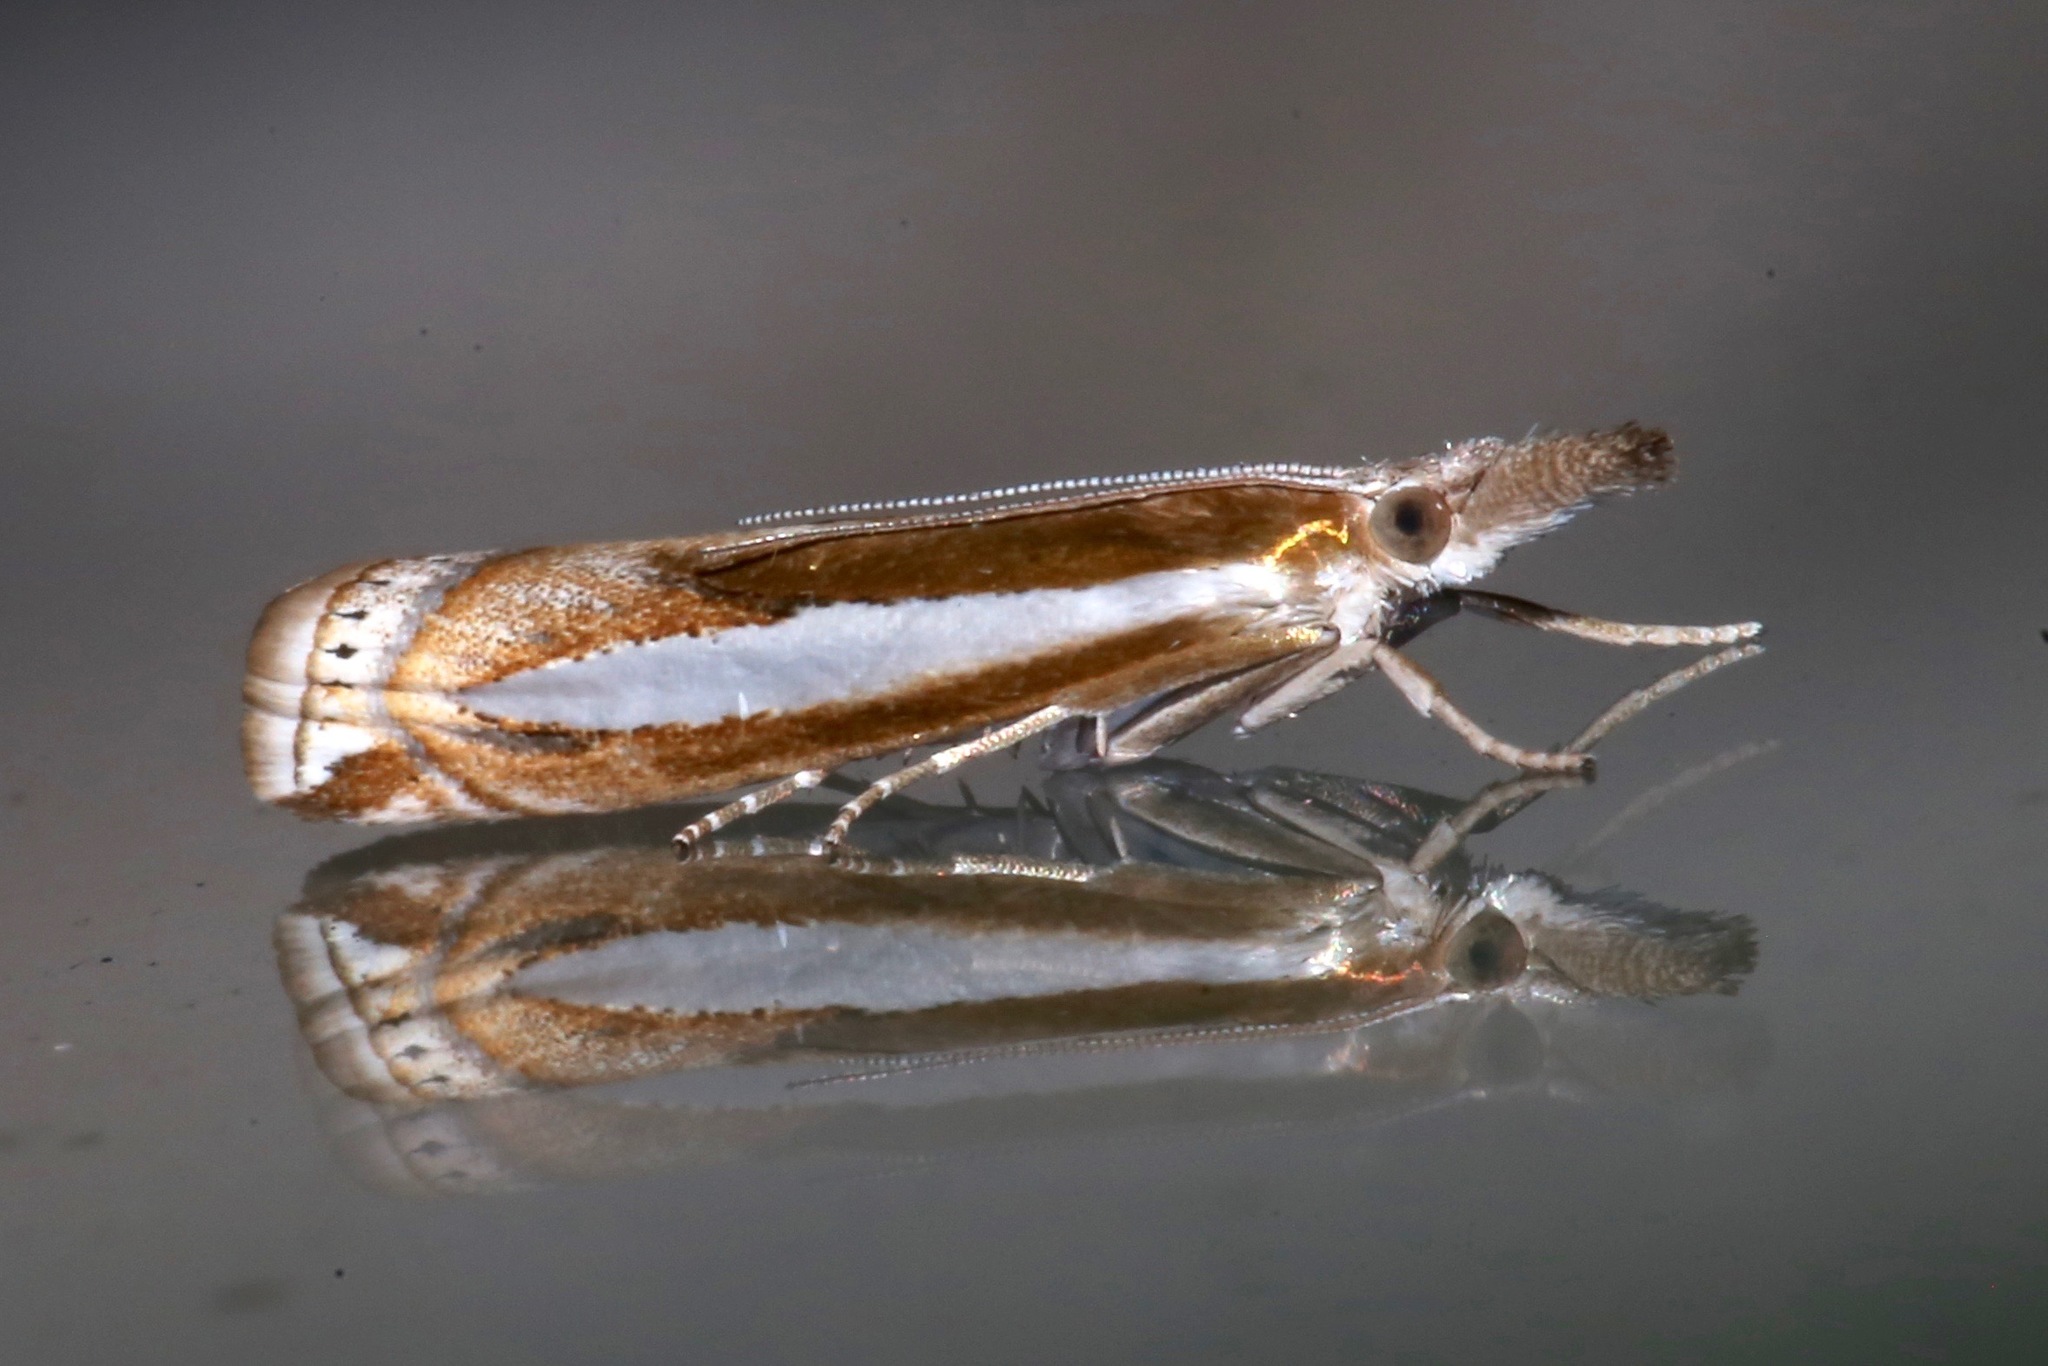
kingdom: Animalia
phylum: Arthropoda
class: Insecta
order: Lepidoptera
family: Crambidae
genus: Crambus
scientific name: Crambus praefectellus
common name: Common grass-veneer
